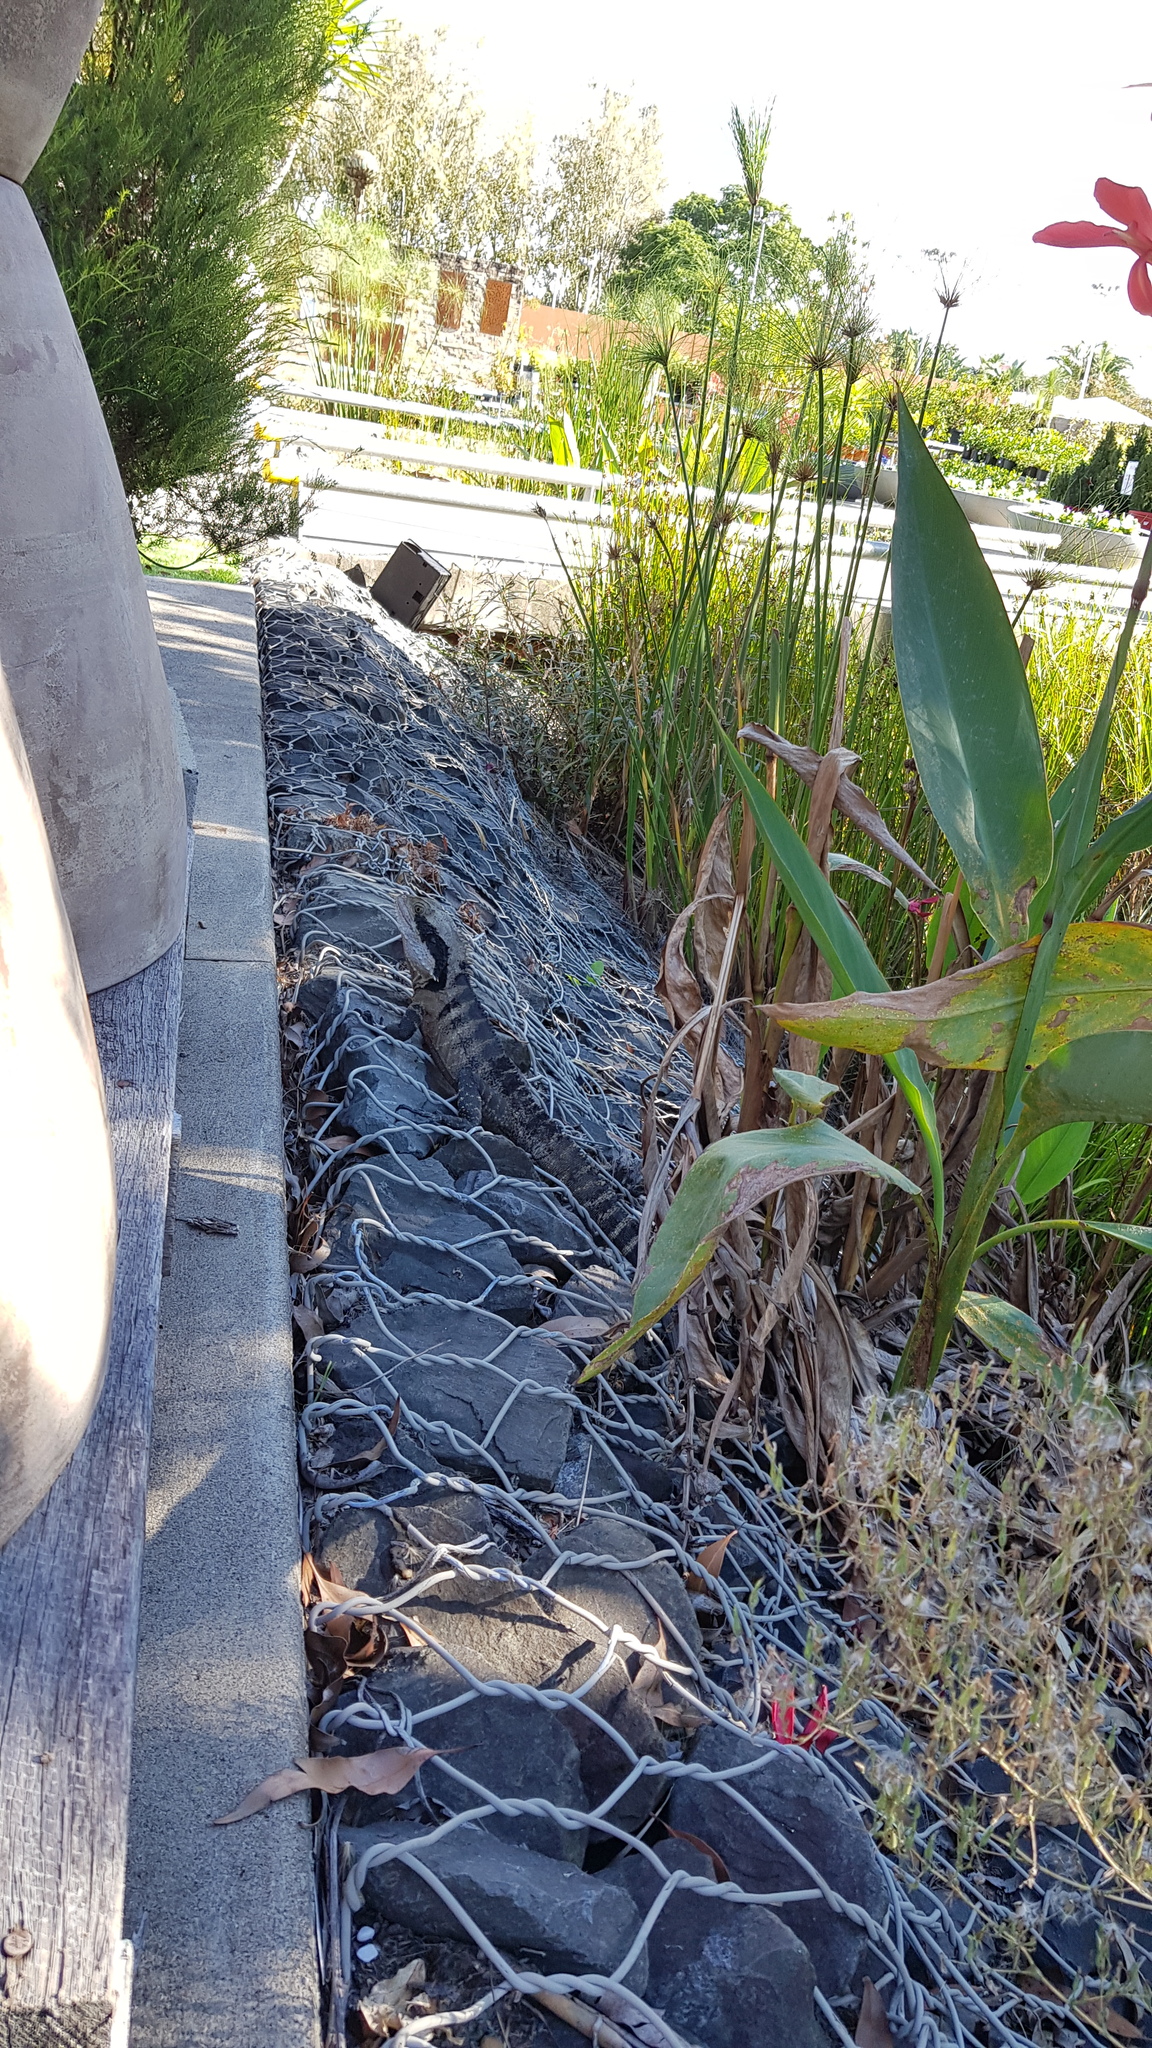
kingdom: Animalia
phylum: Chordata
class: Squamata
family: Agamidae
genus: Intellagama
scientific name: Intellagama lesueurii
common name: Eastern water dragon
